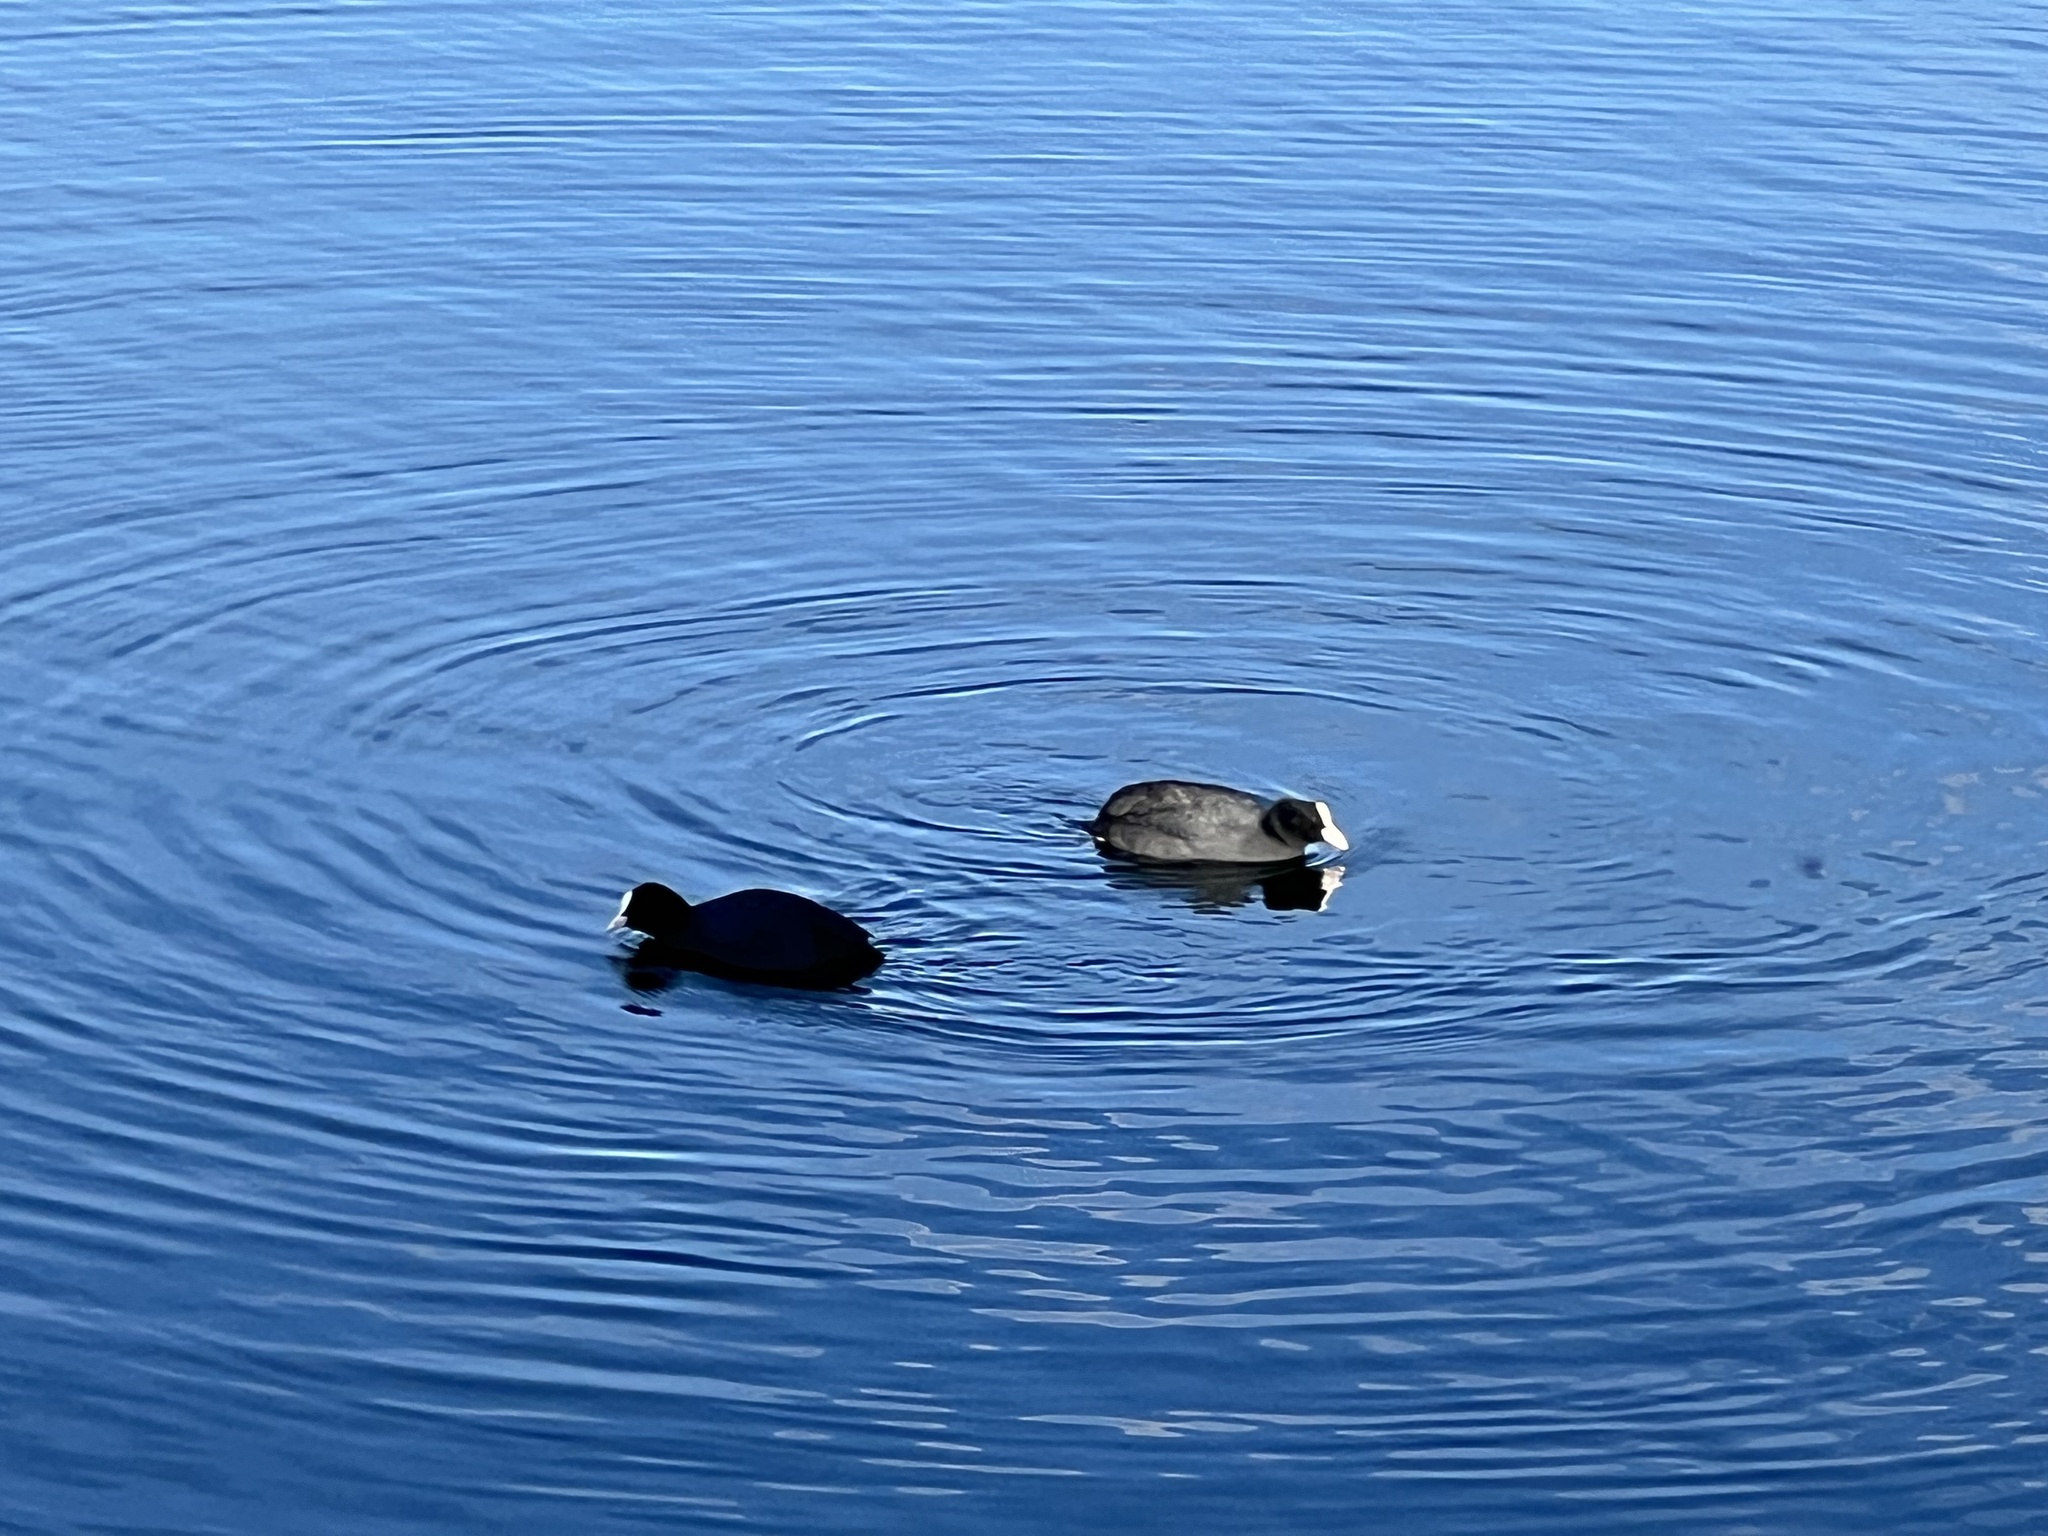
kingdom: Animalia
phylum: Chordata
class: Aves
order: Gruiformes
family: Rallidae
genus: Fulica
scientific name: Fulica atra
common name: Eurasian coot
